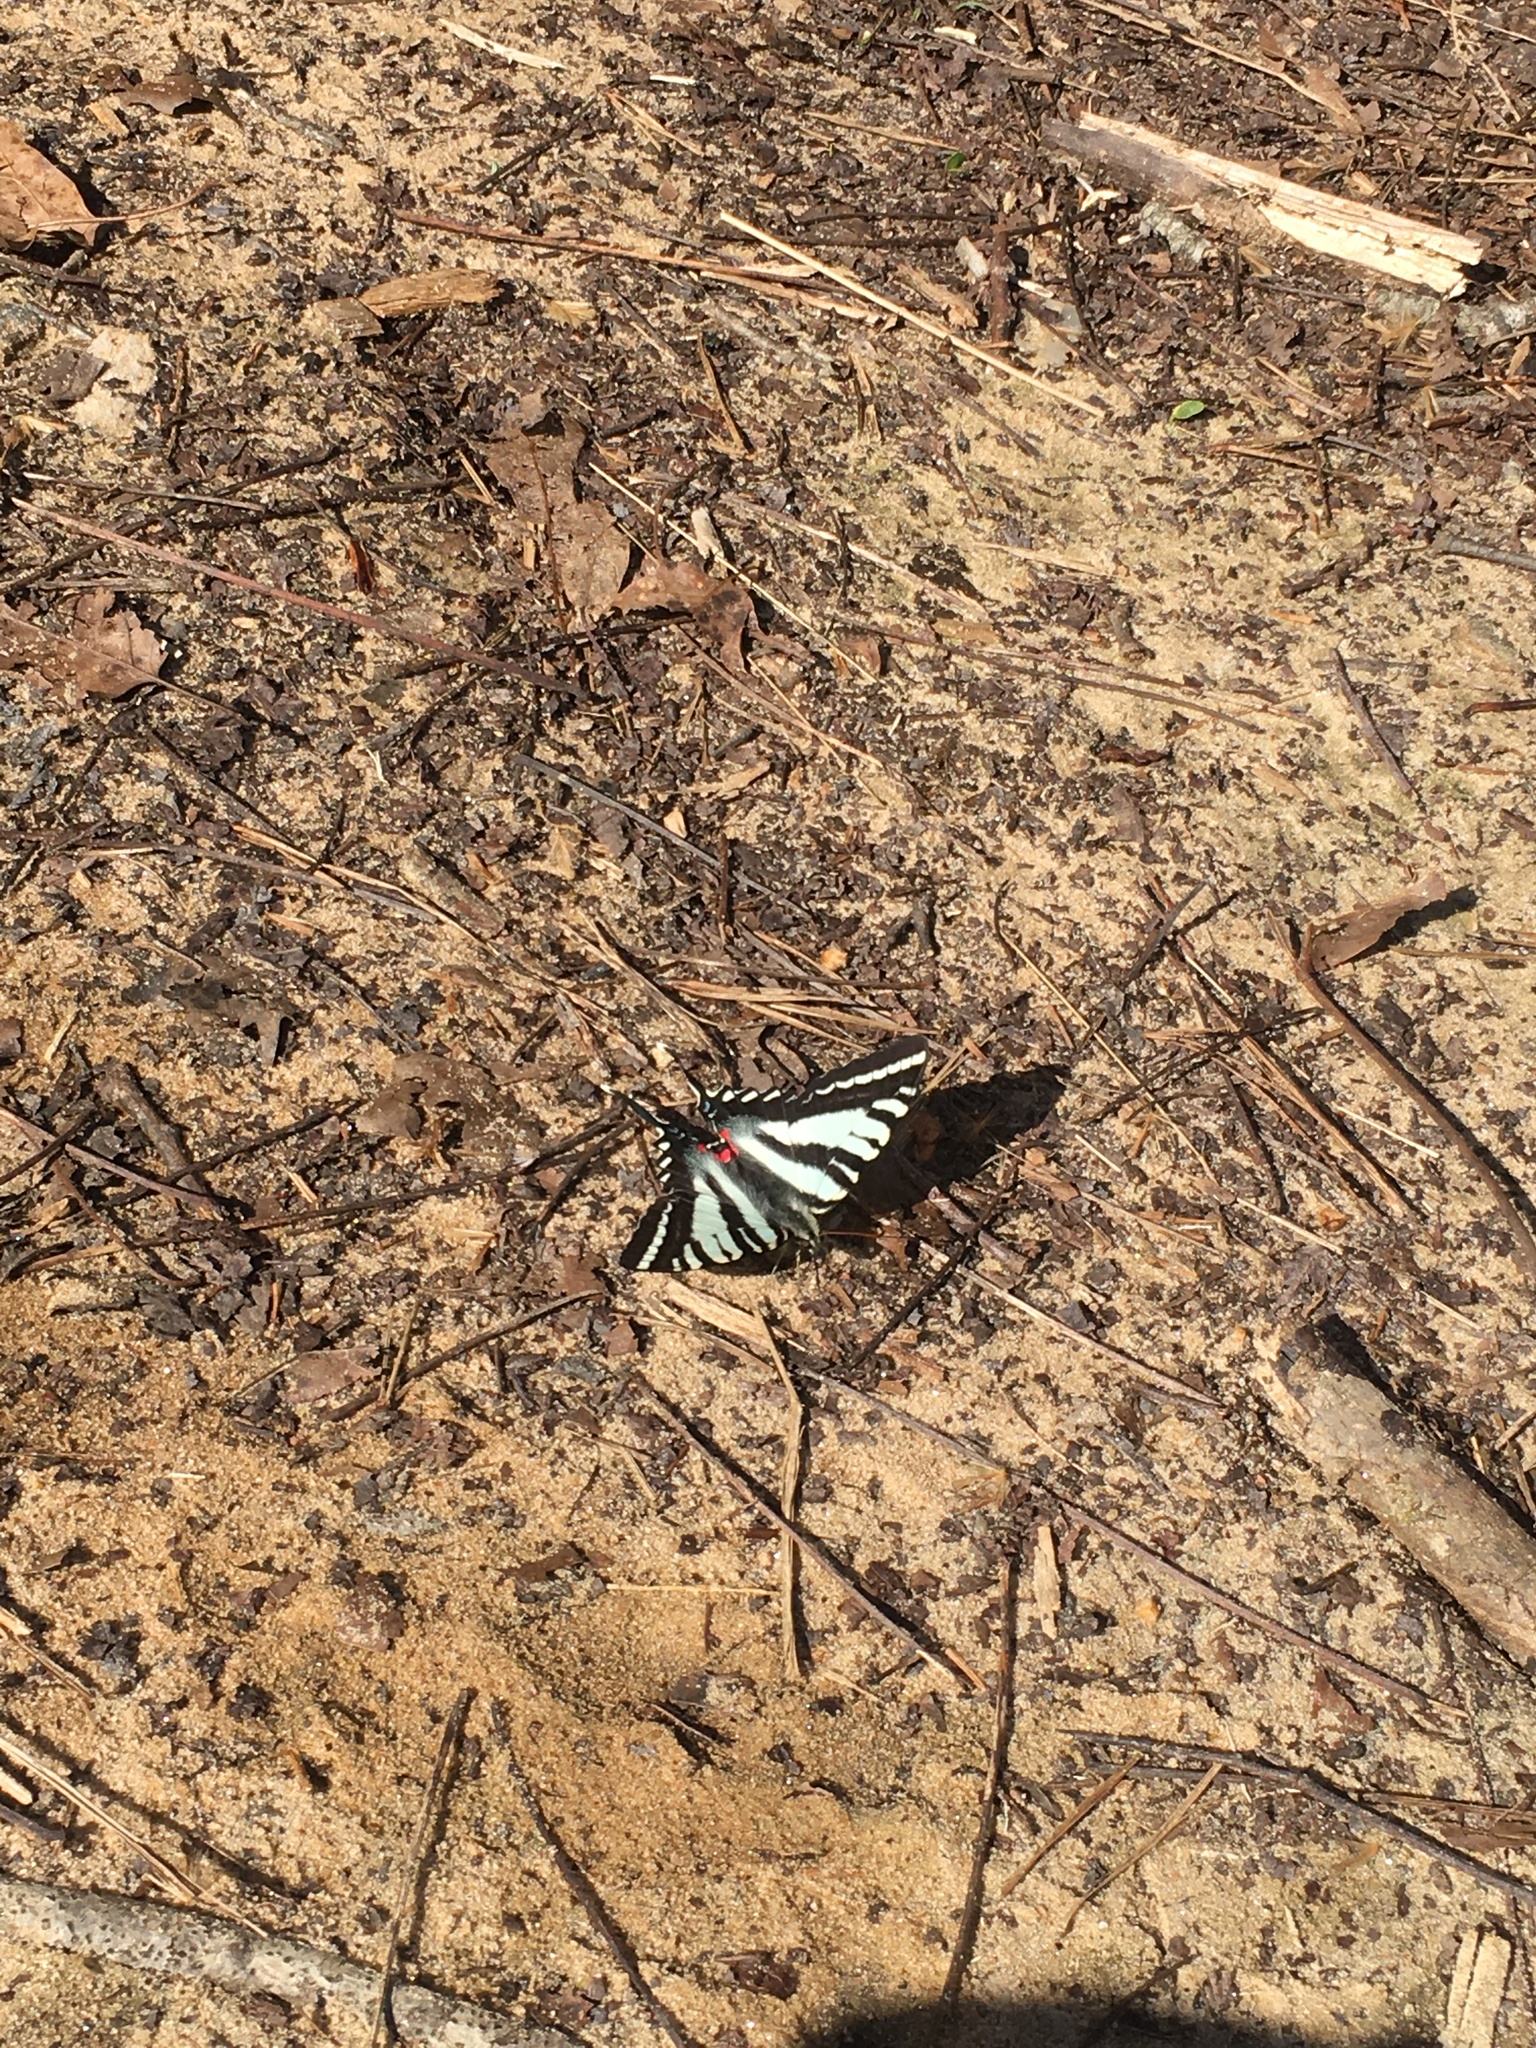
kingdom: Animalia
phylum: Arthropoda
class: Insecta
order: Lepidoptera
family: Papilionidae
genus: Protographium
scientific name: Protographium marcellus
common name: Zebra swallowtail
